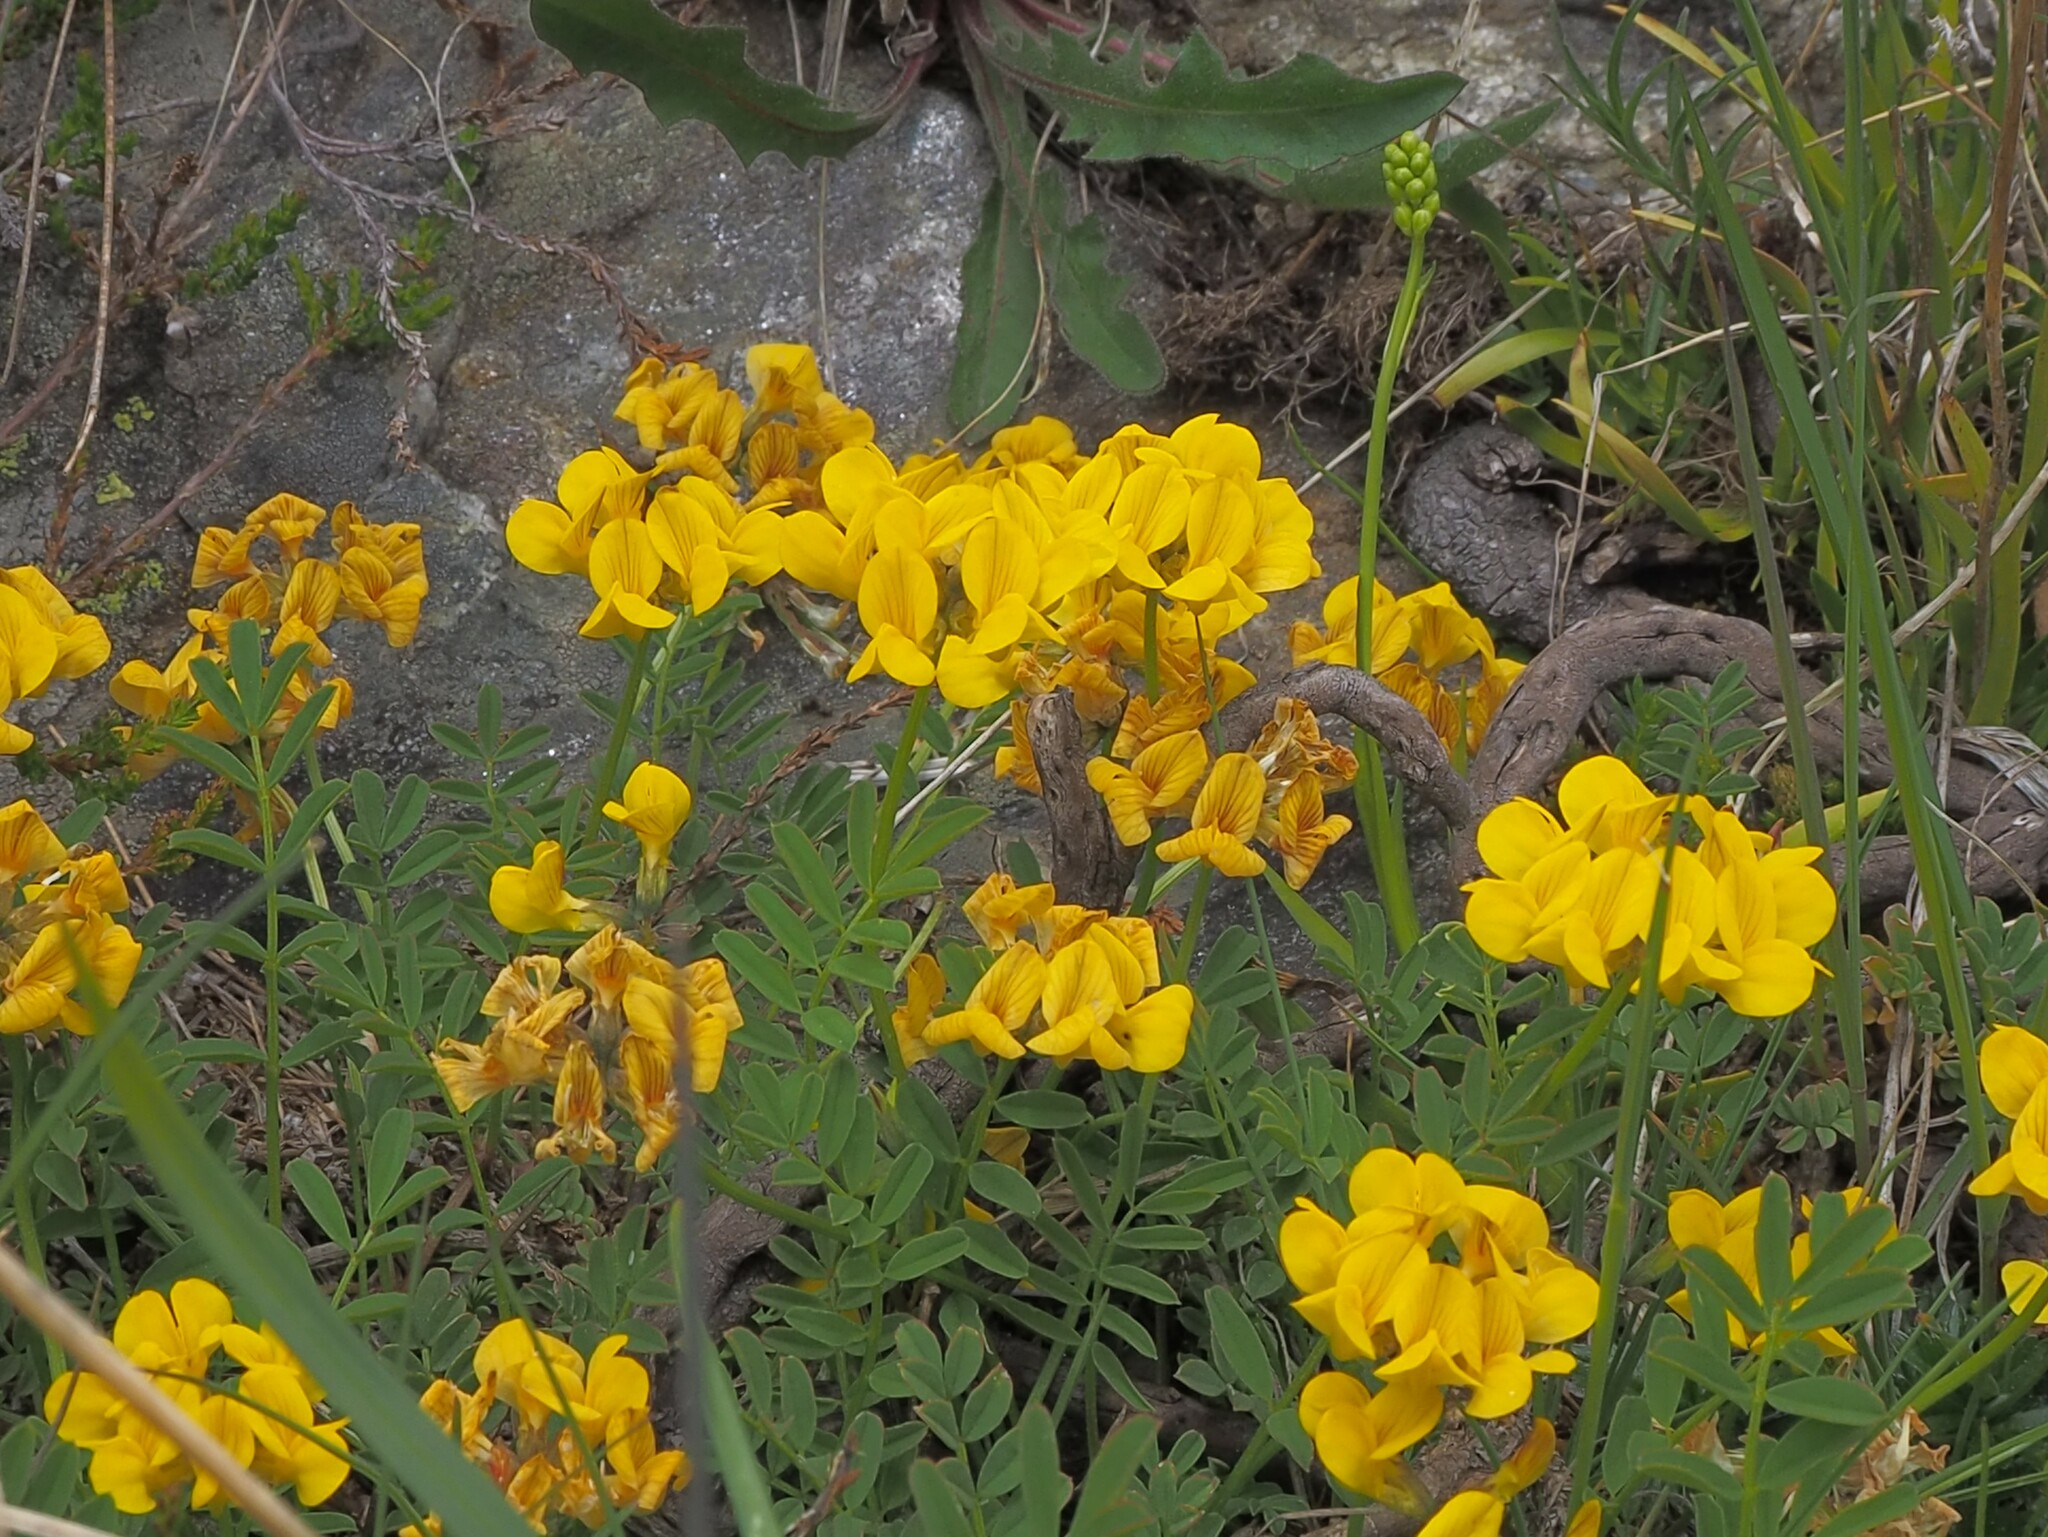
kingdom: Plantae
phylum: Tracheophyta
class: Magnoliopsida
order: Fabales
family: Fabaceae
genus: Hippocrepis
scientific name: Hippocrepis comosa
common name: Horseshoe vetch
